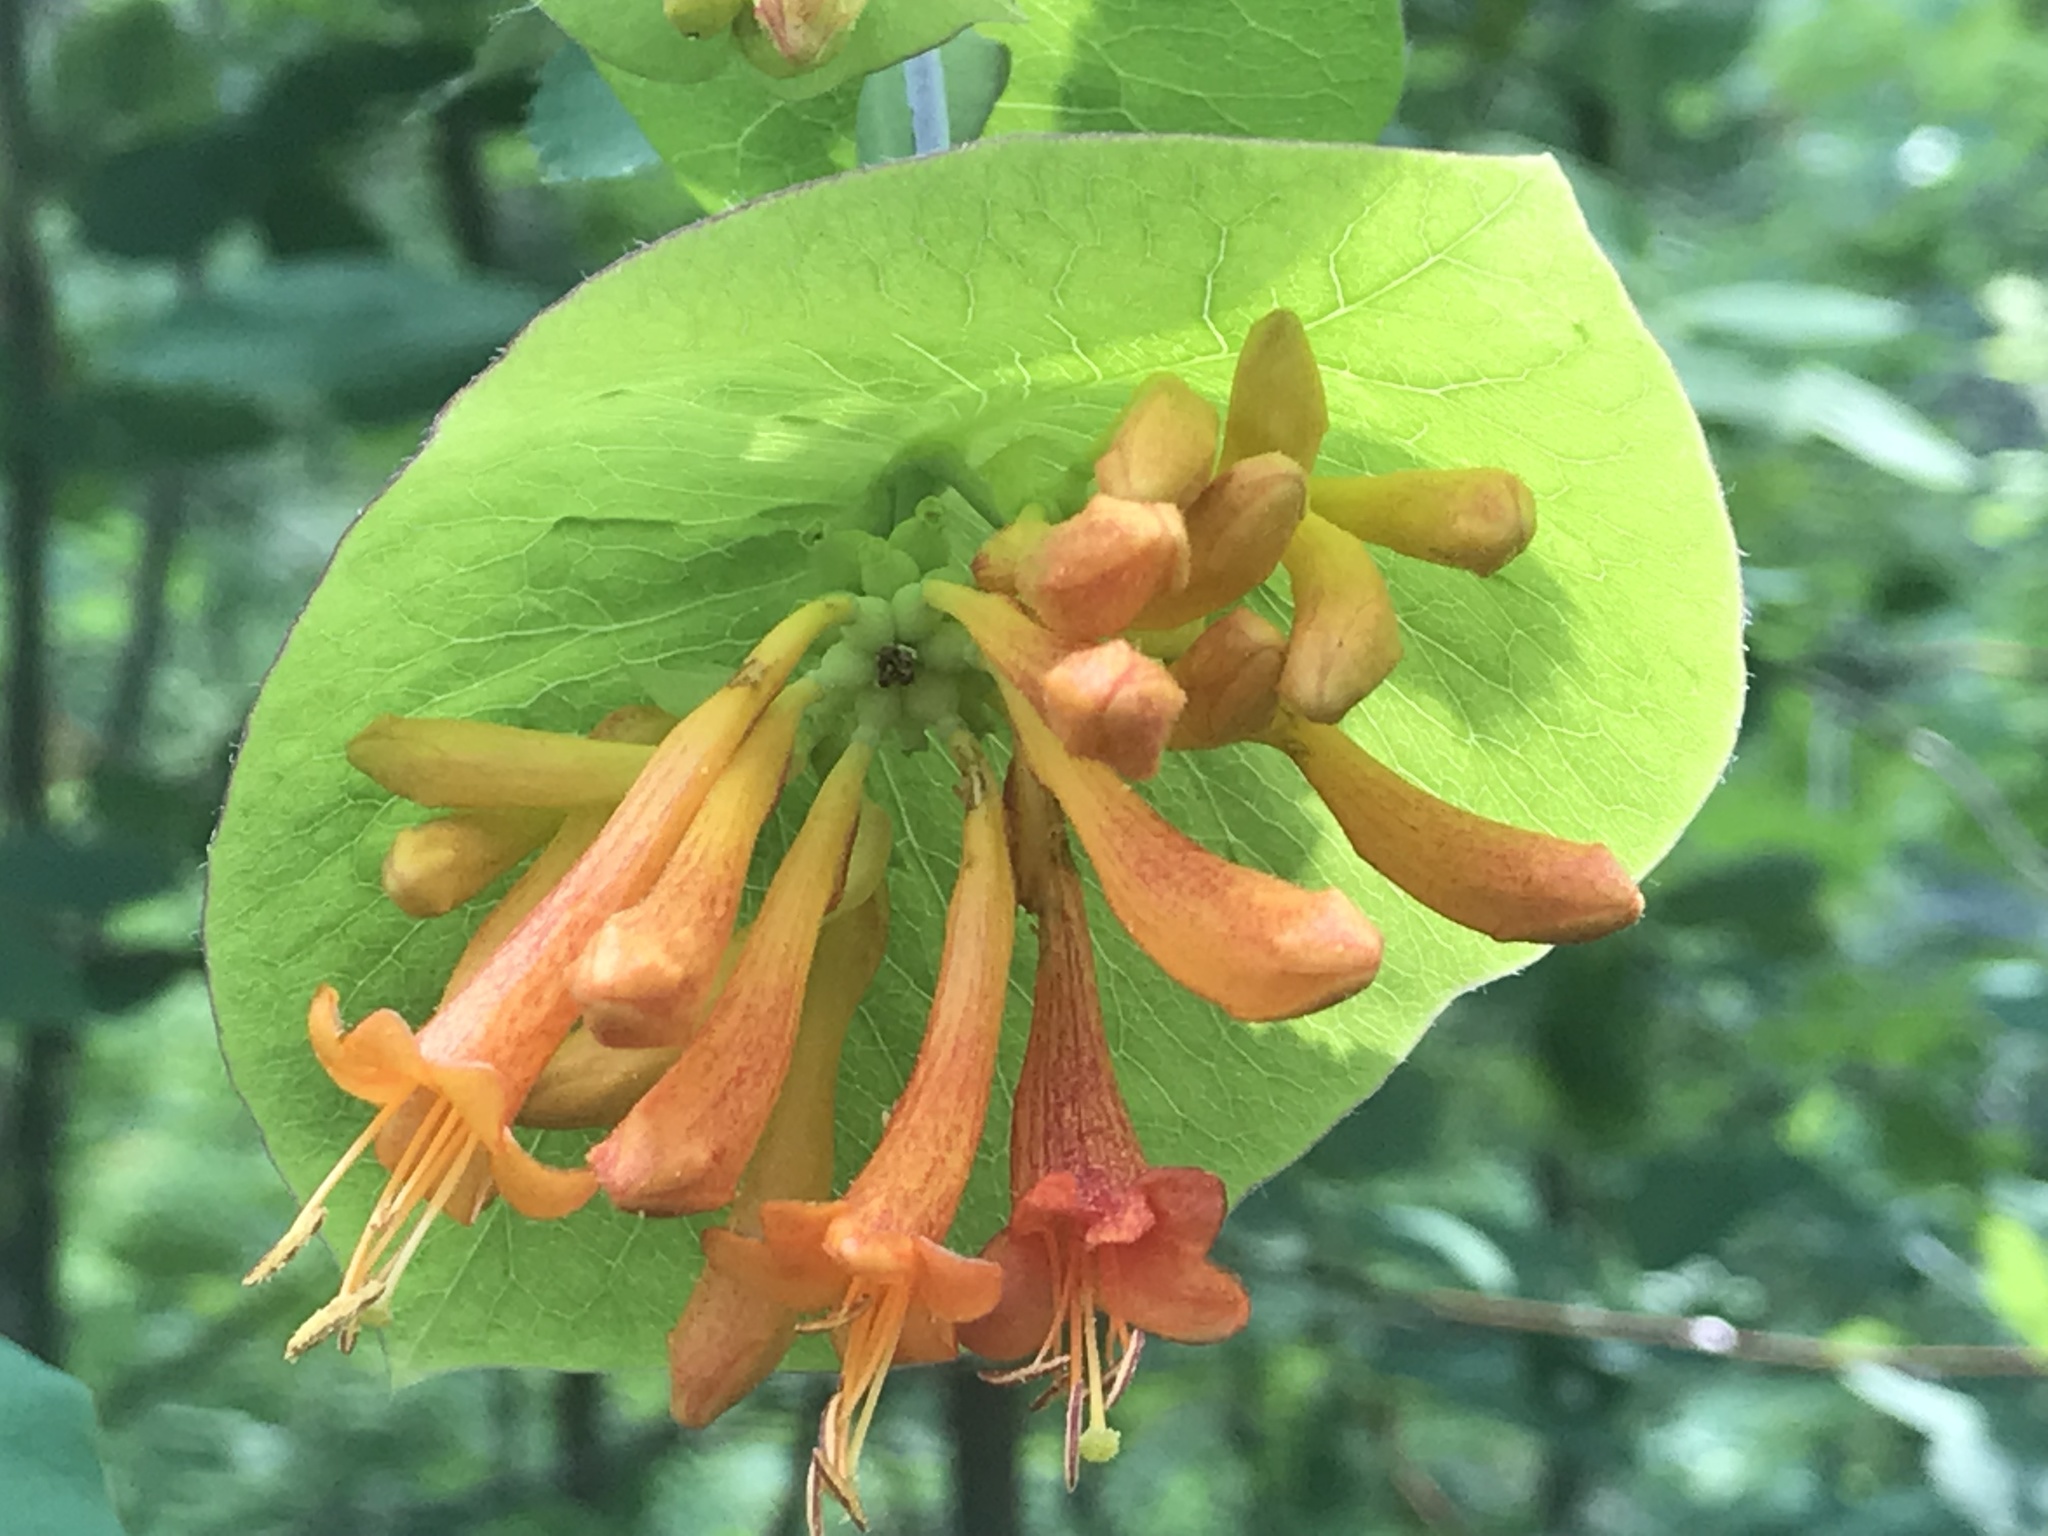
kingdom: Plantae
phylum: Tracheophyta
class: Magnoliopsida
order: Dipsacales
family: Caprifoliaceae
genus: Lonicera
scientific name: Lonicera ciliosa
